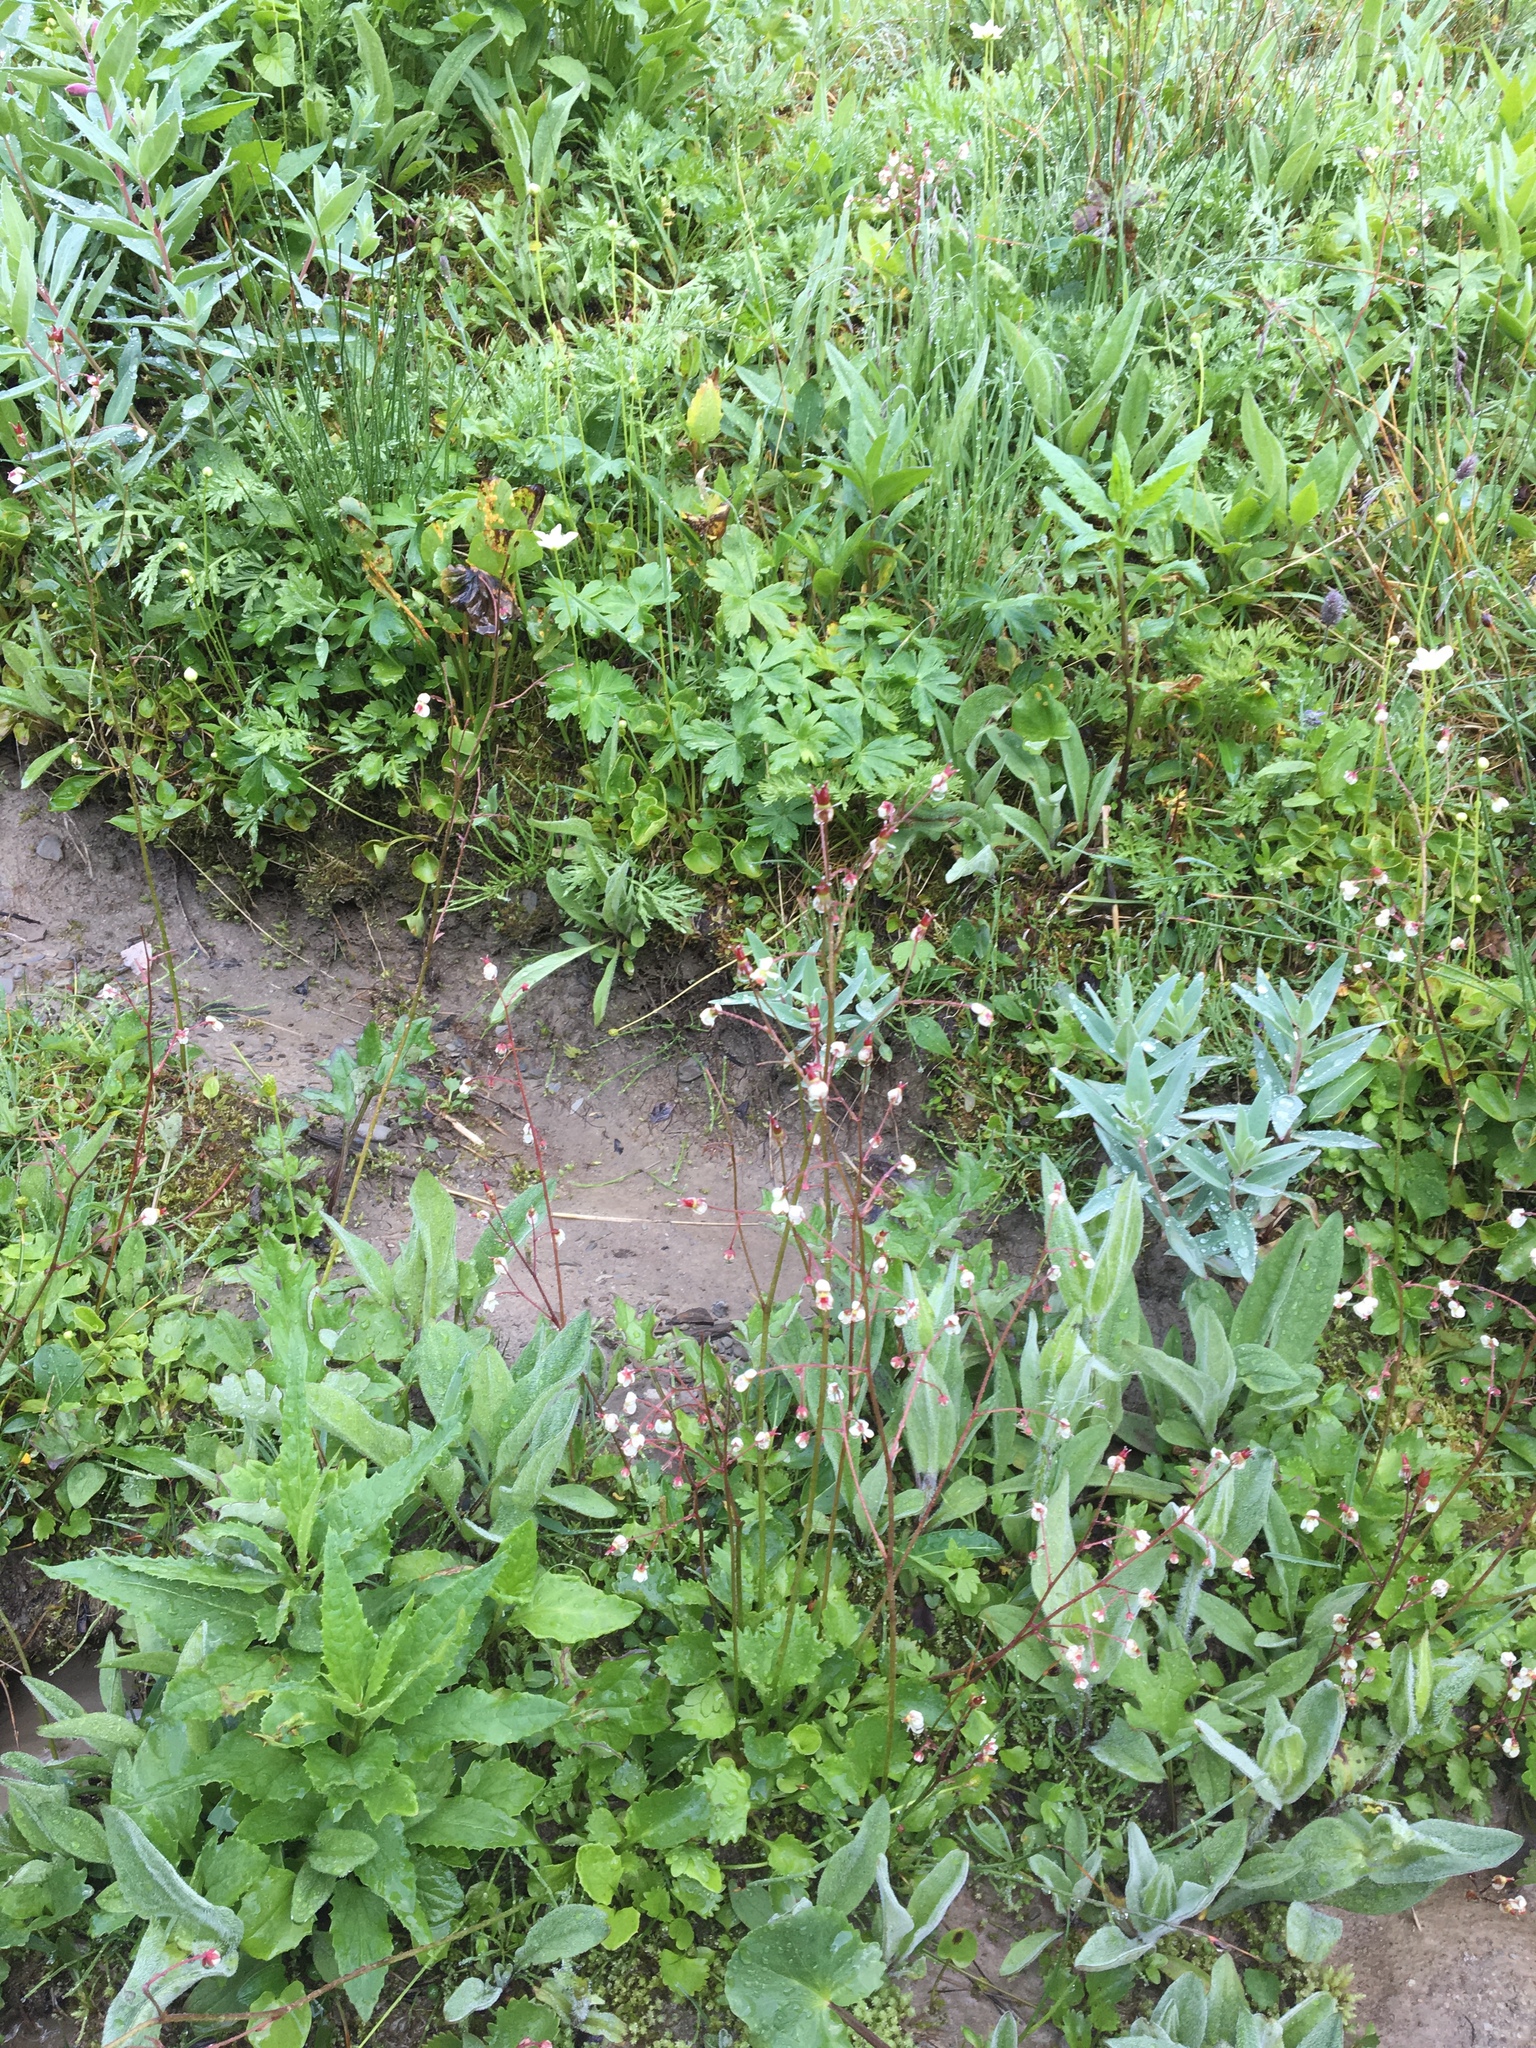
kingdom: Plantae
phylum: Tracheophyta
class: Magnoliopsida
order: Saxifragales
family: Saxifragaceae
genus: Micranthes
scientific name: Micranthes lyallii
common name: Lyall's saxifrage
